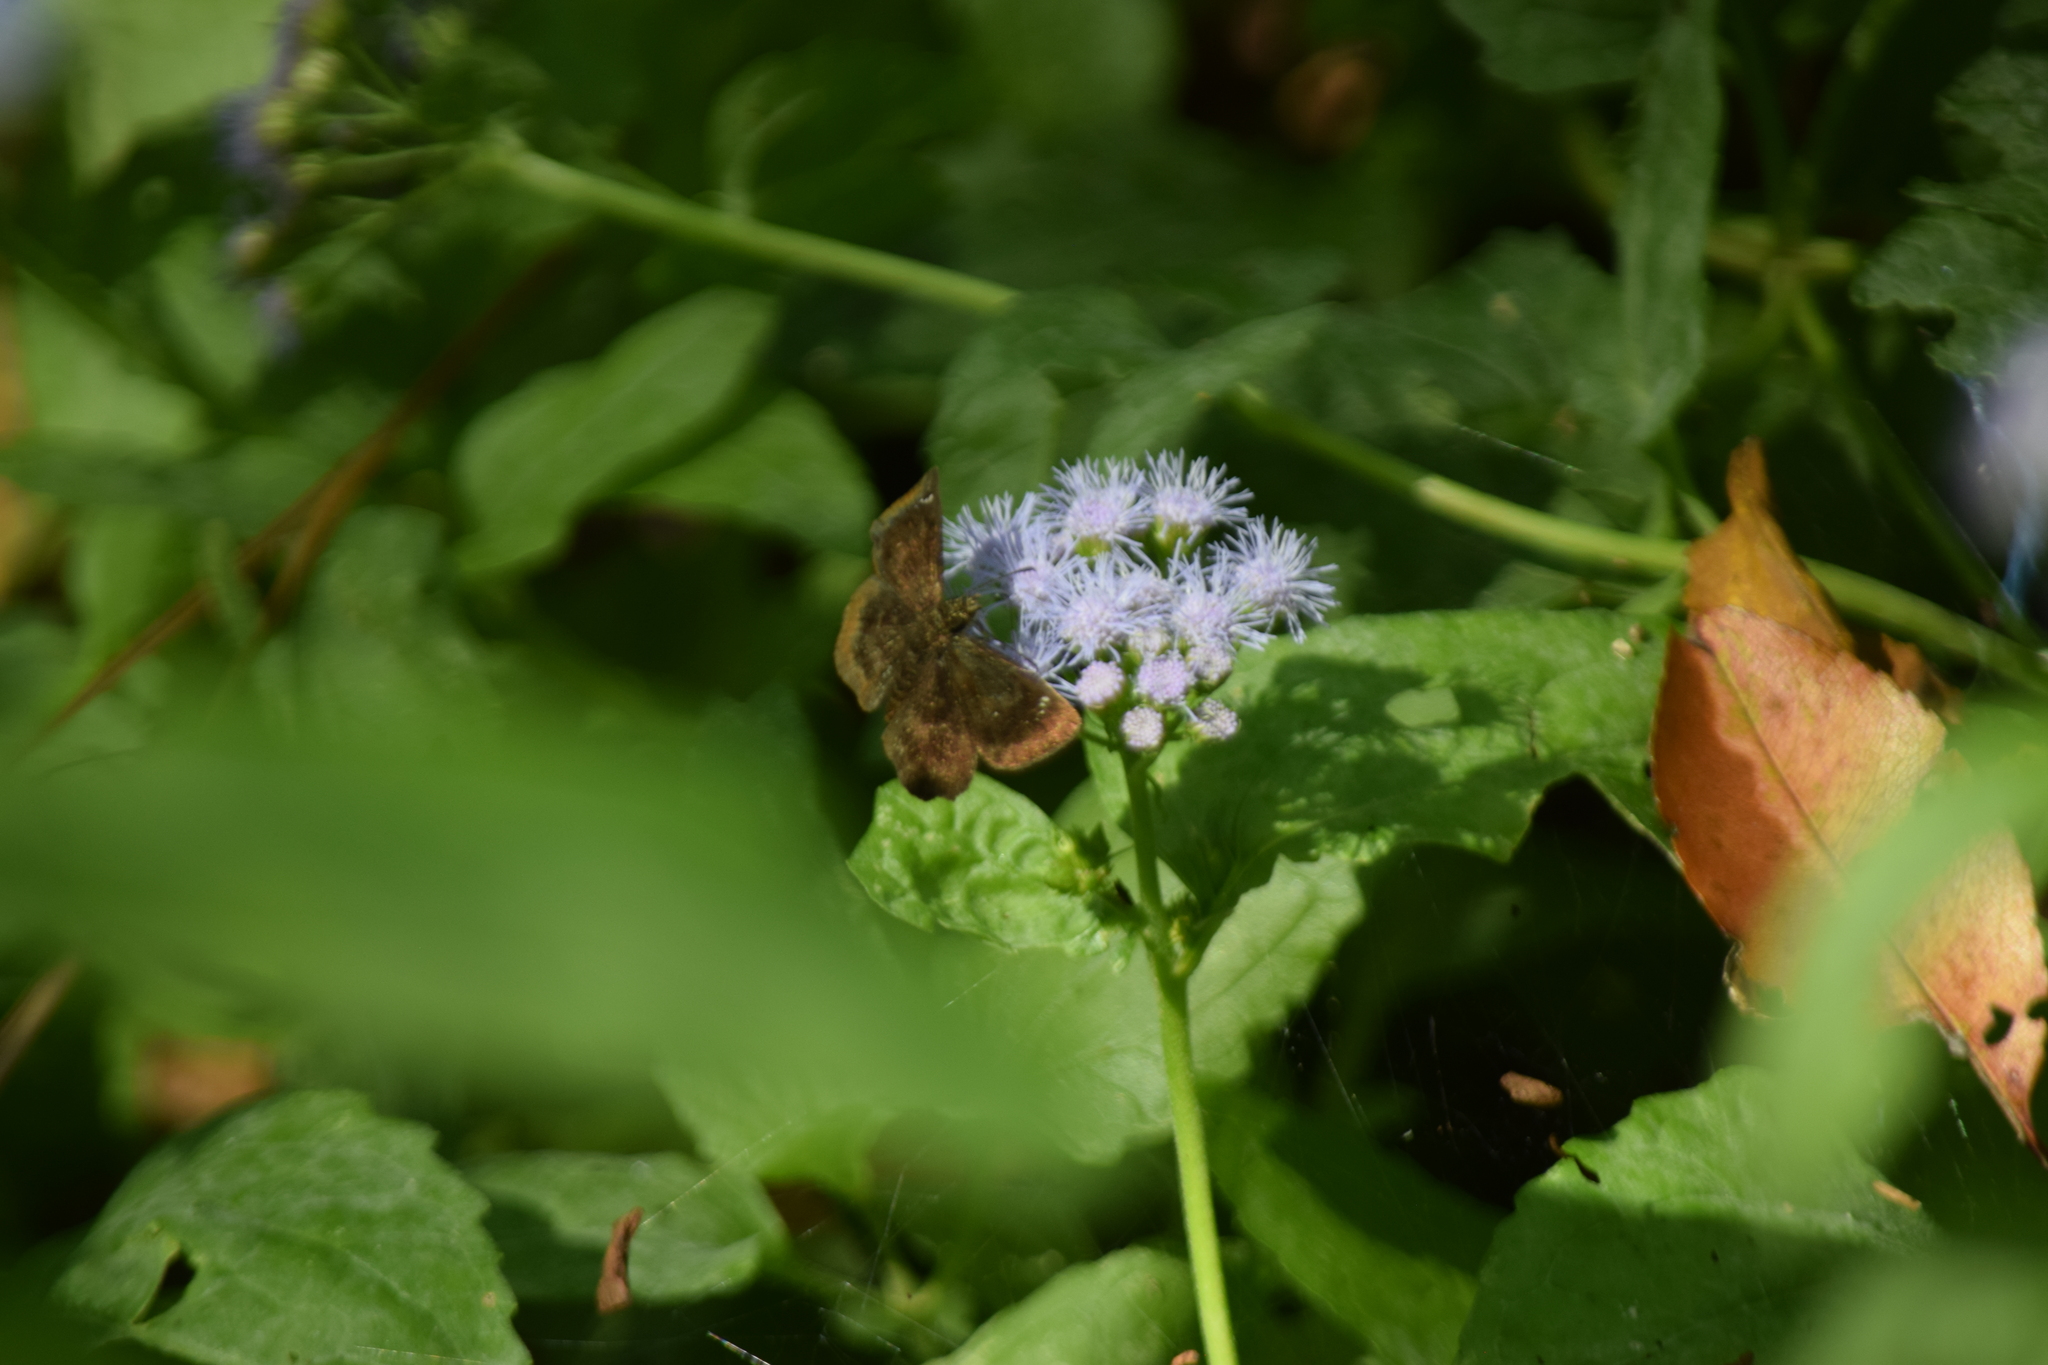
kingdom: Animalia
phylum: Arthropoda
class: Insecta
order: Lepidoptera
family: Hesperiidae
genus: Staphylus
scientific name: Staphylus mazans
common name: Mazans scallopwing
